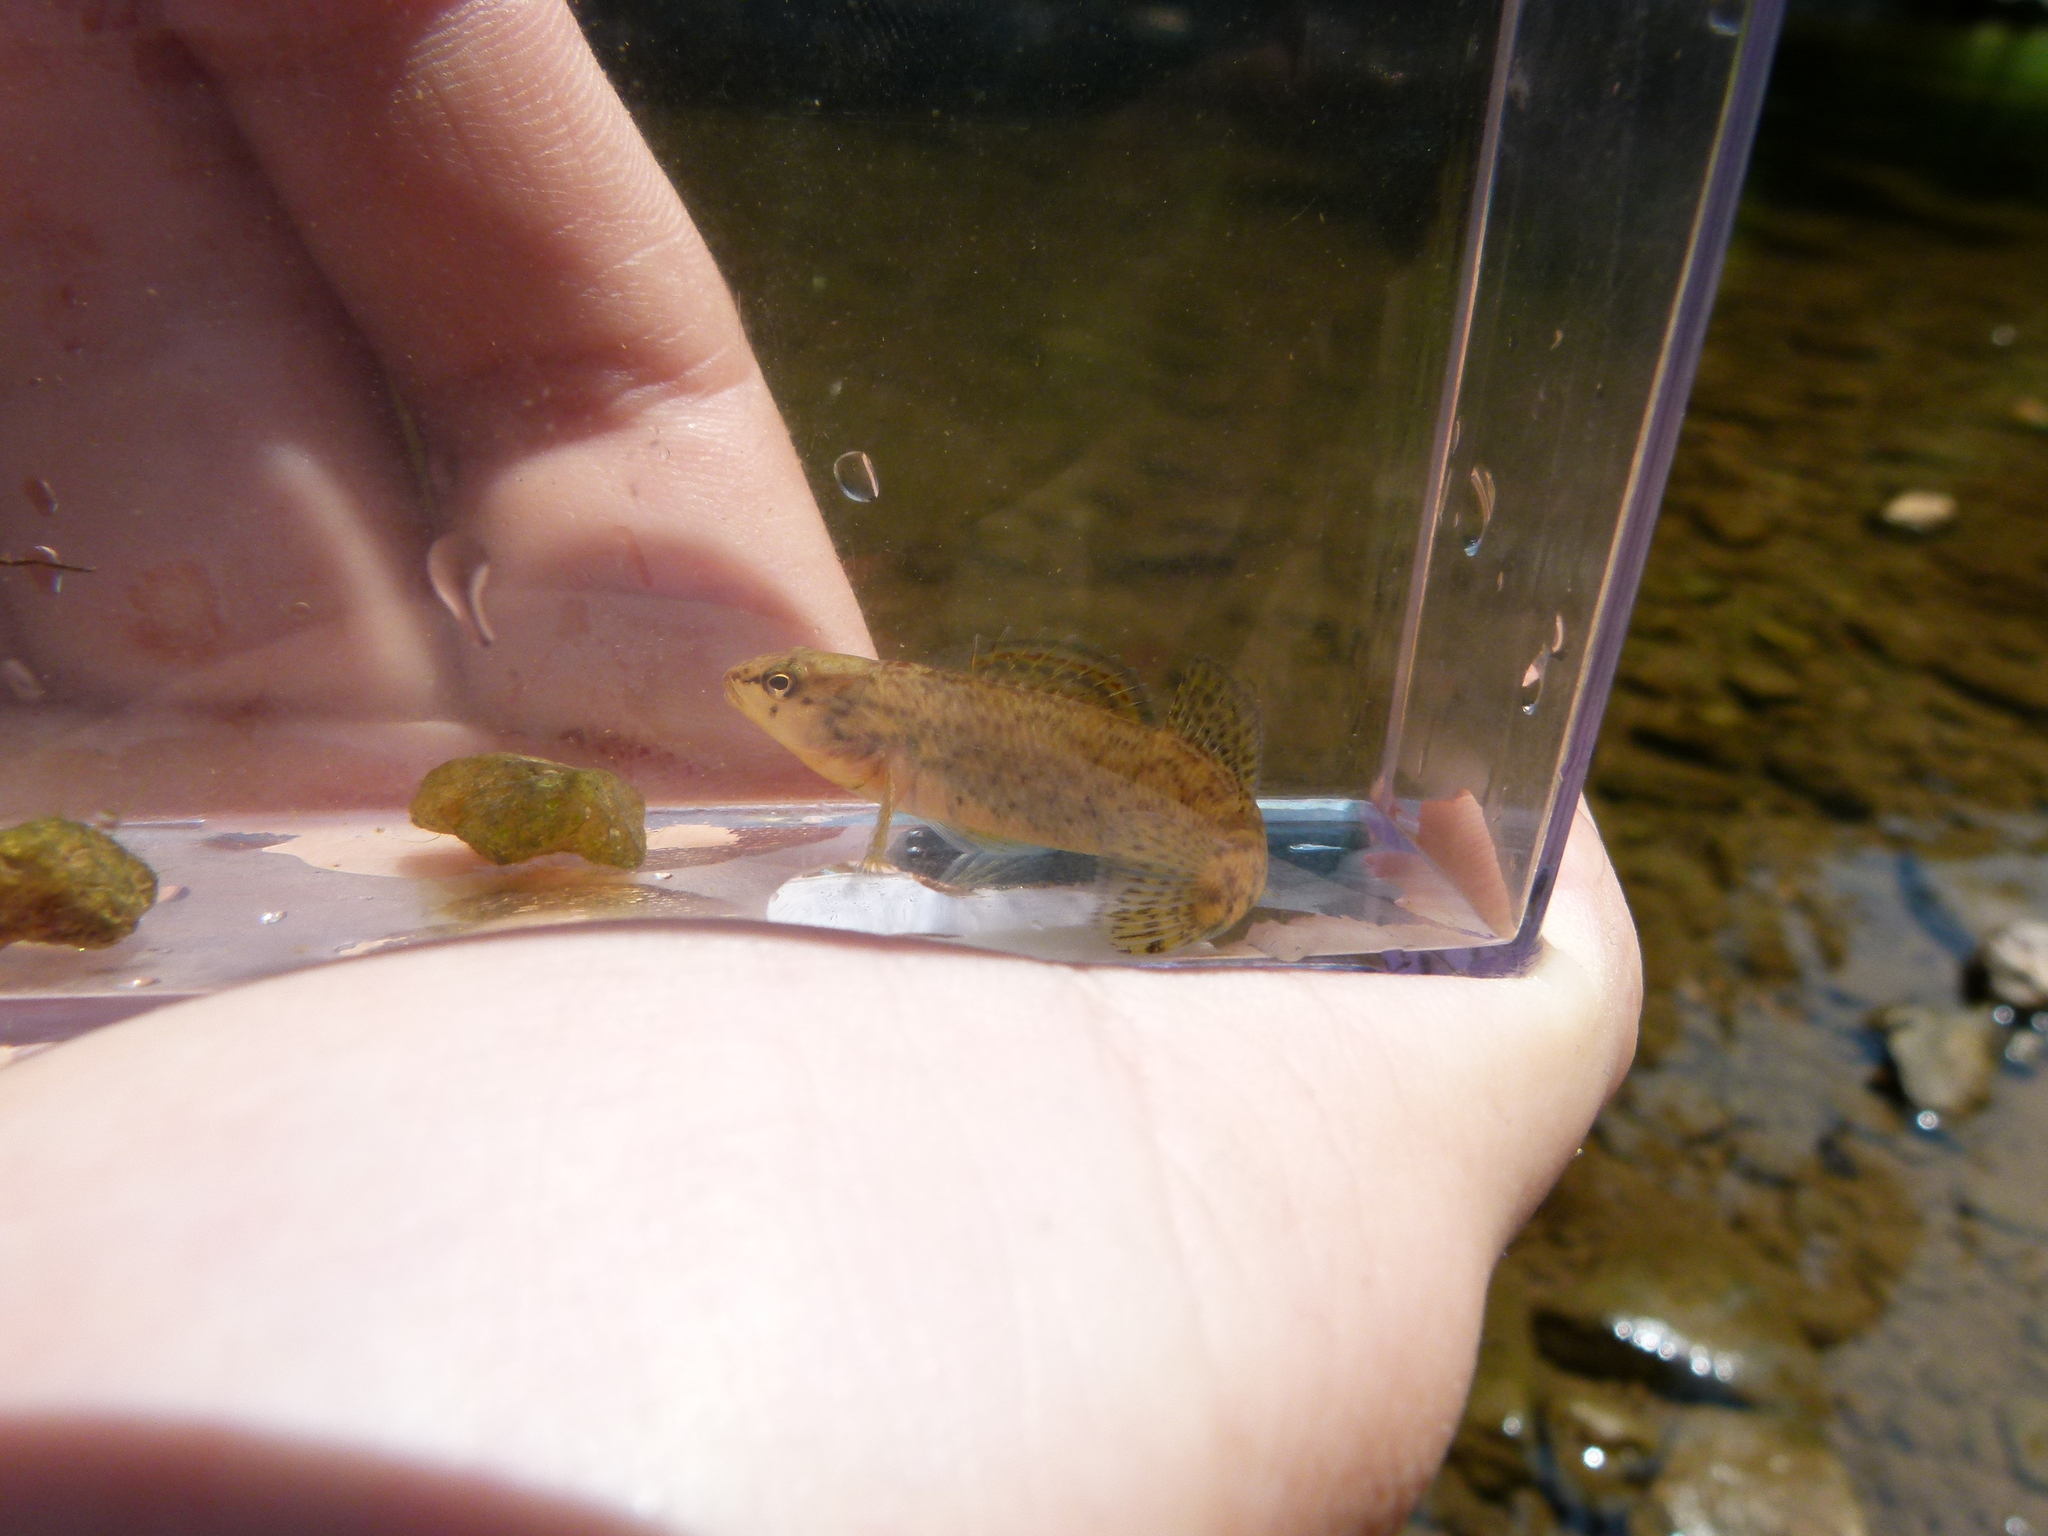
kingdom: Animalia
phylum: Chordata
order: Perciformes
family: Percidae
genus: Etheostoma
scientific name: Etheostoma caeruleum
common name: Rainbow darter
